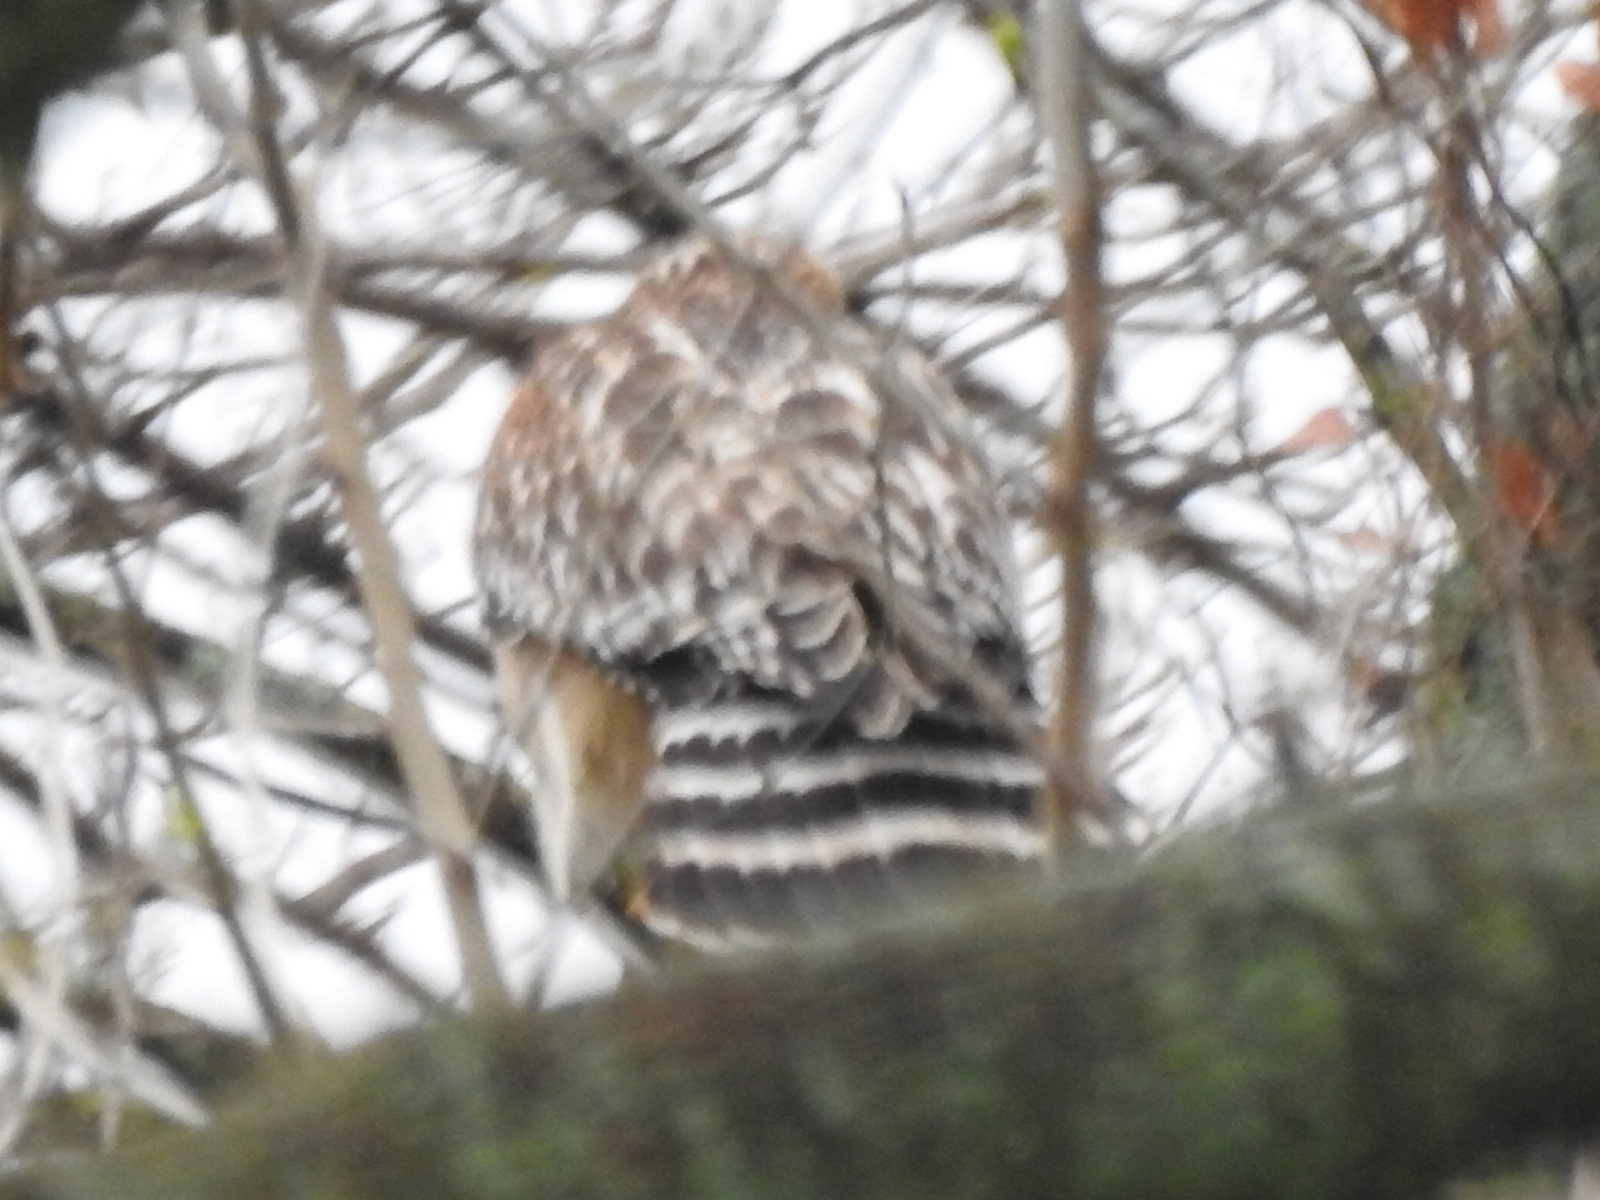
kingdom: Animalia
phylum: Chordata
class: Aves
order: Accipitriformes
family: Accipitridae
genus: Buteo
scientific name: Buteo lineatus
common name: Red-shouldered hawk
